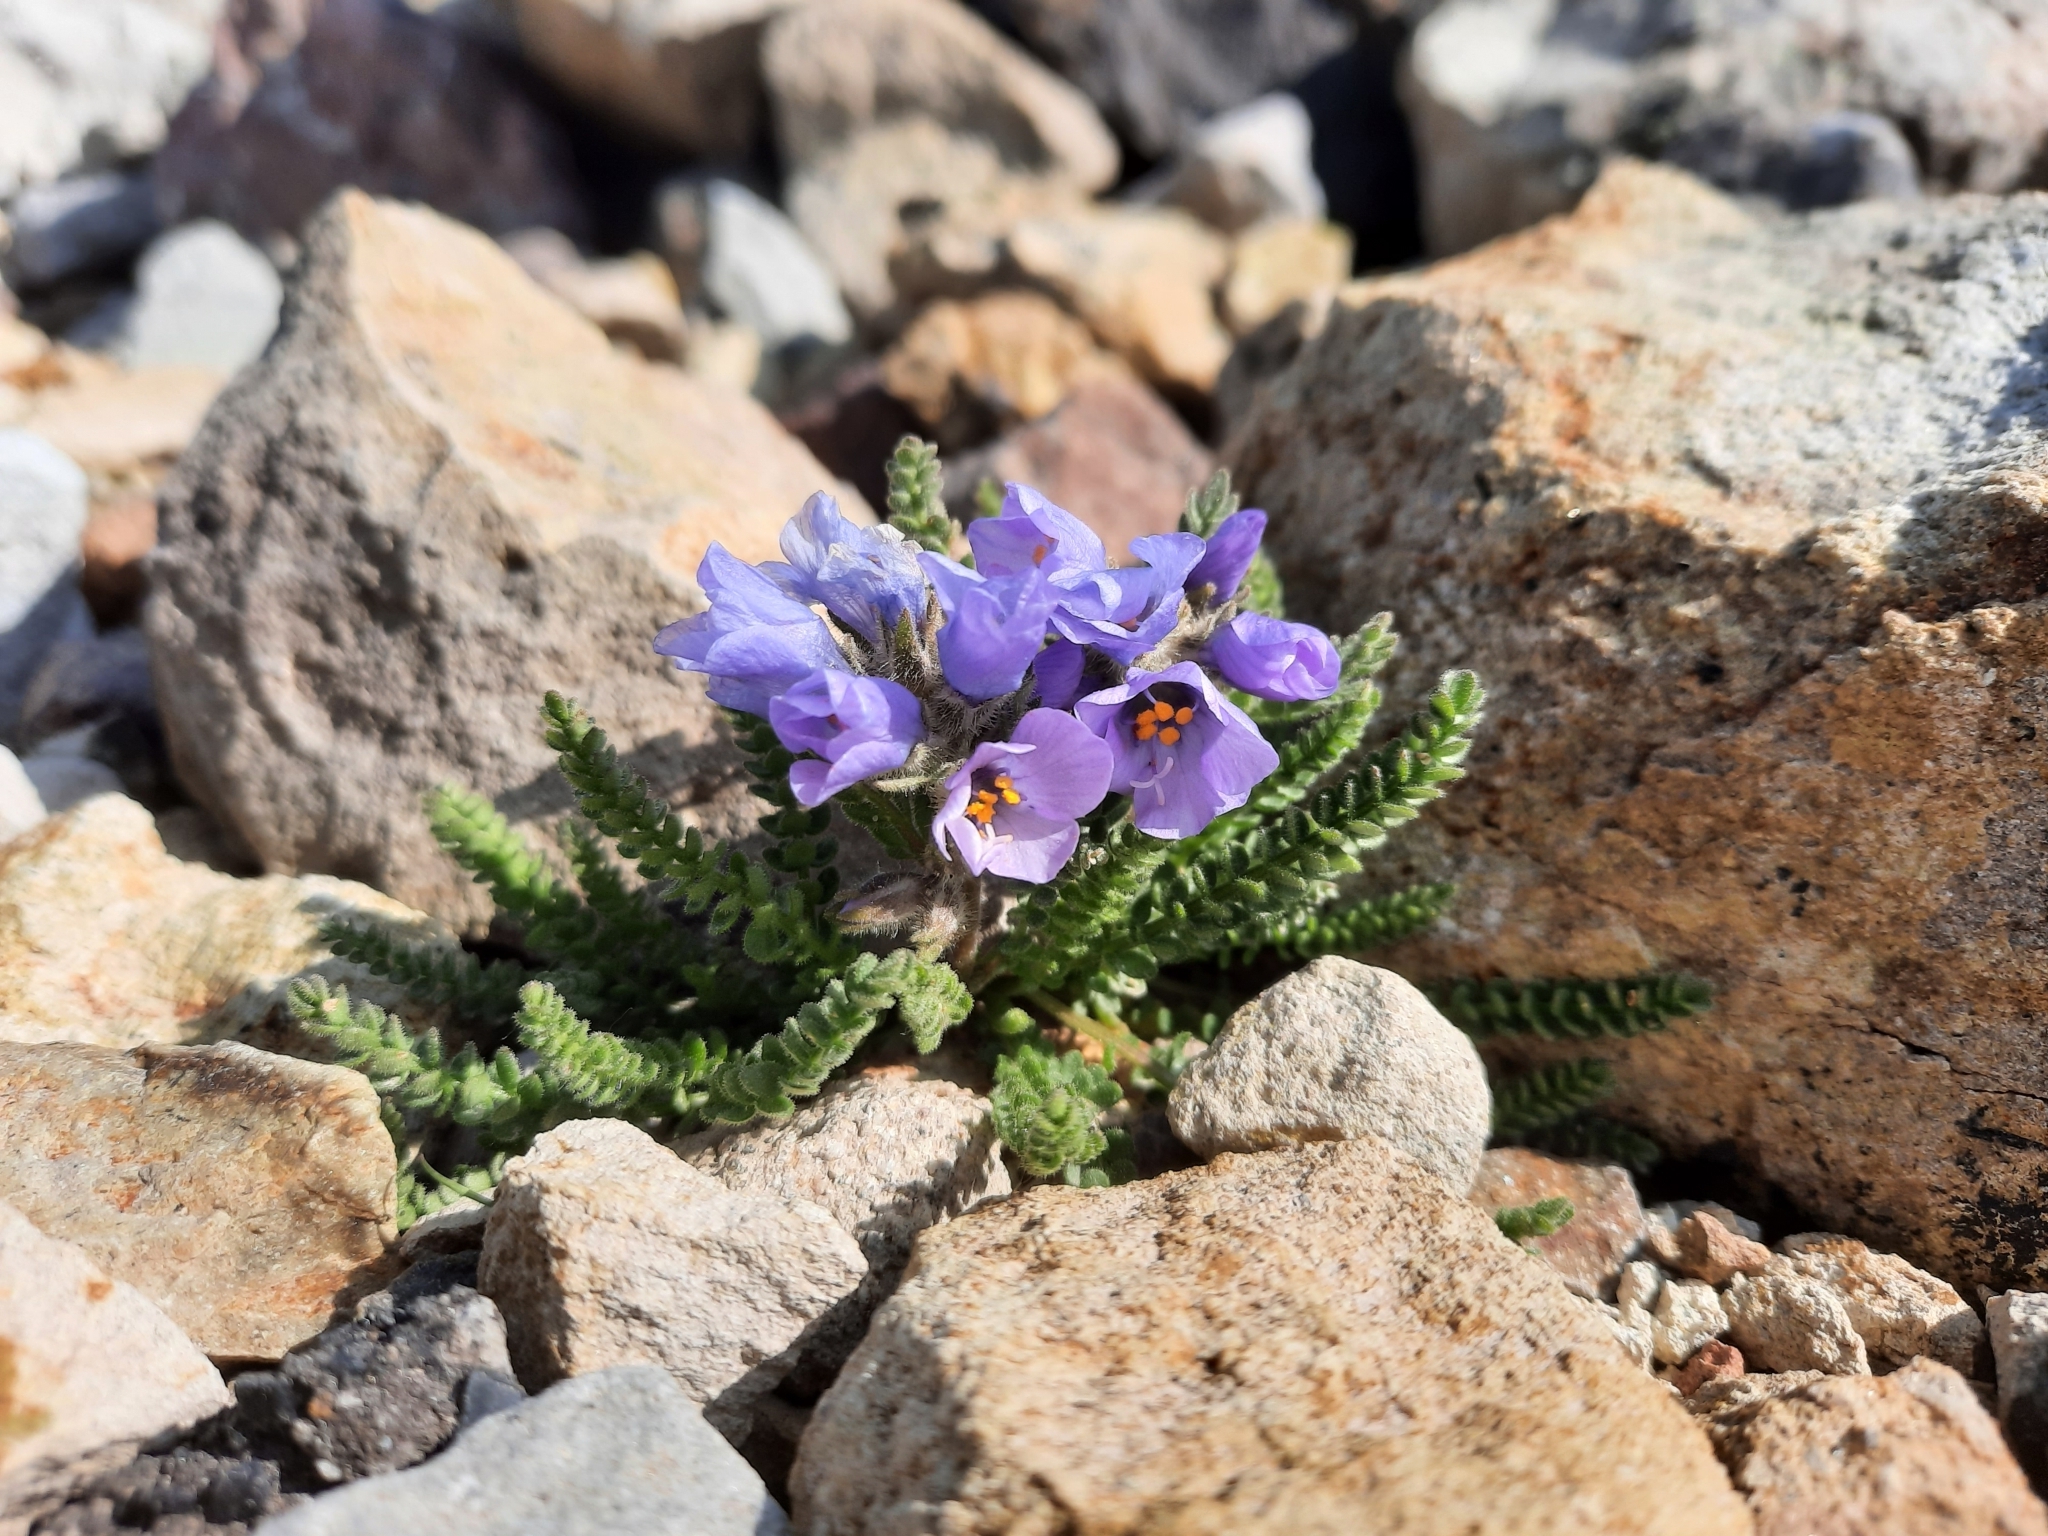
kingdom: Plantae
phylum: Tracheophyta
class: Magnoliopsida
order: Ericales
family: Polemoniaceae
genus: Polemonium
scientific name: Polemonium viscosum
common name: Skunk jacob's-ladder
